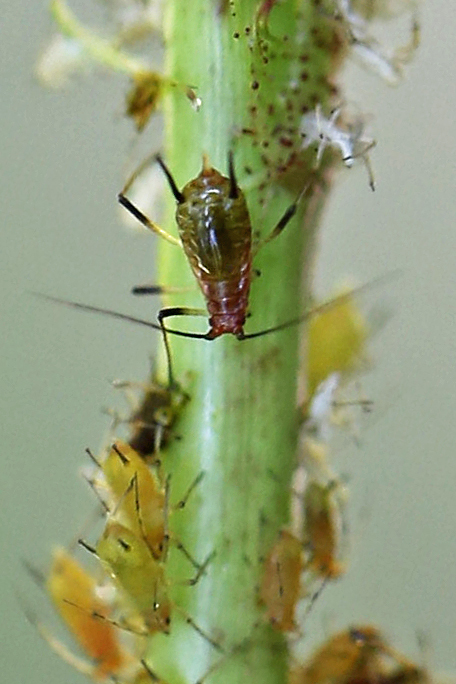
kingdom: Animalia
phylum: Arthropoda
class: Insecta
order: Hemiptera
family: Aphididae
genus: Macrosiphum
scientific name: Macrosiphum rosae
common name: Rose aphid
